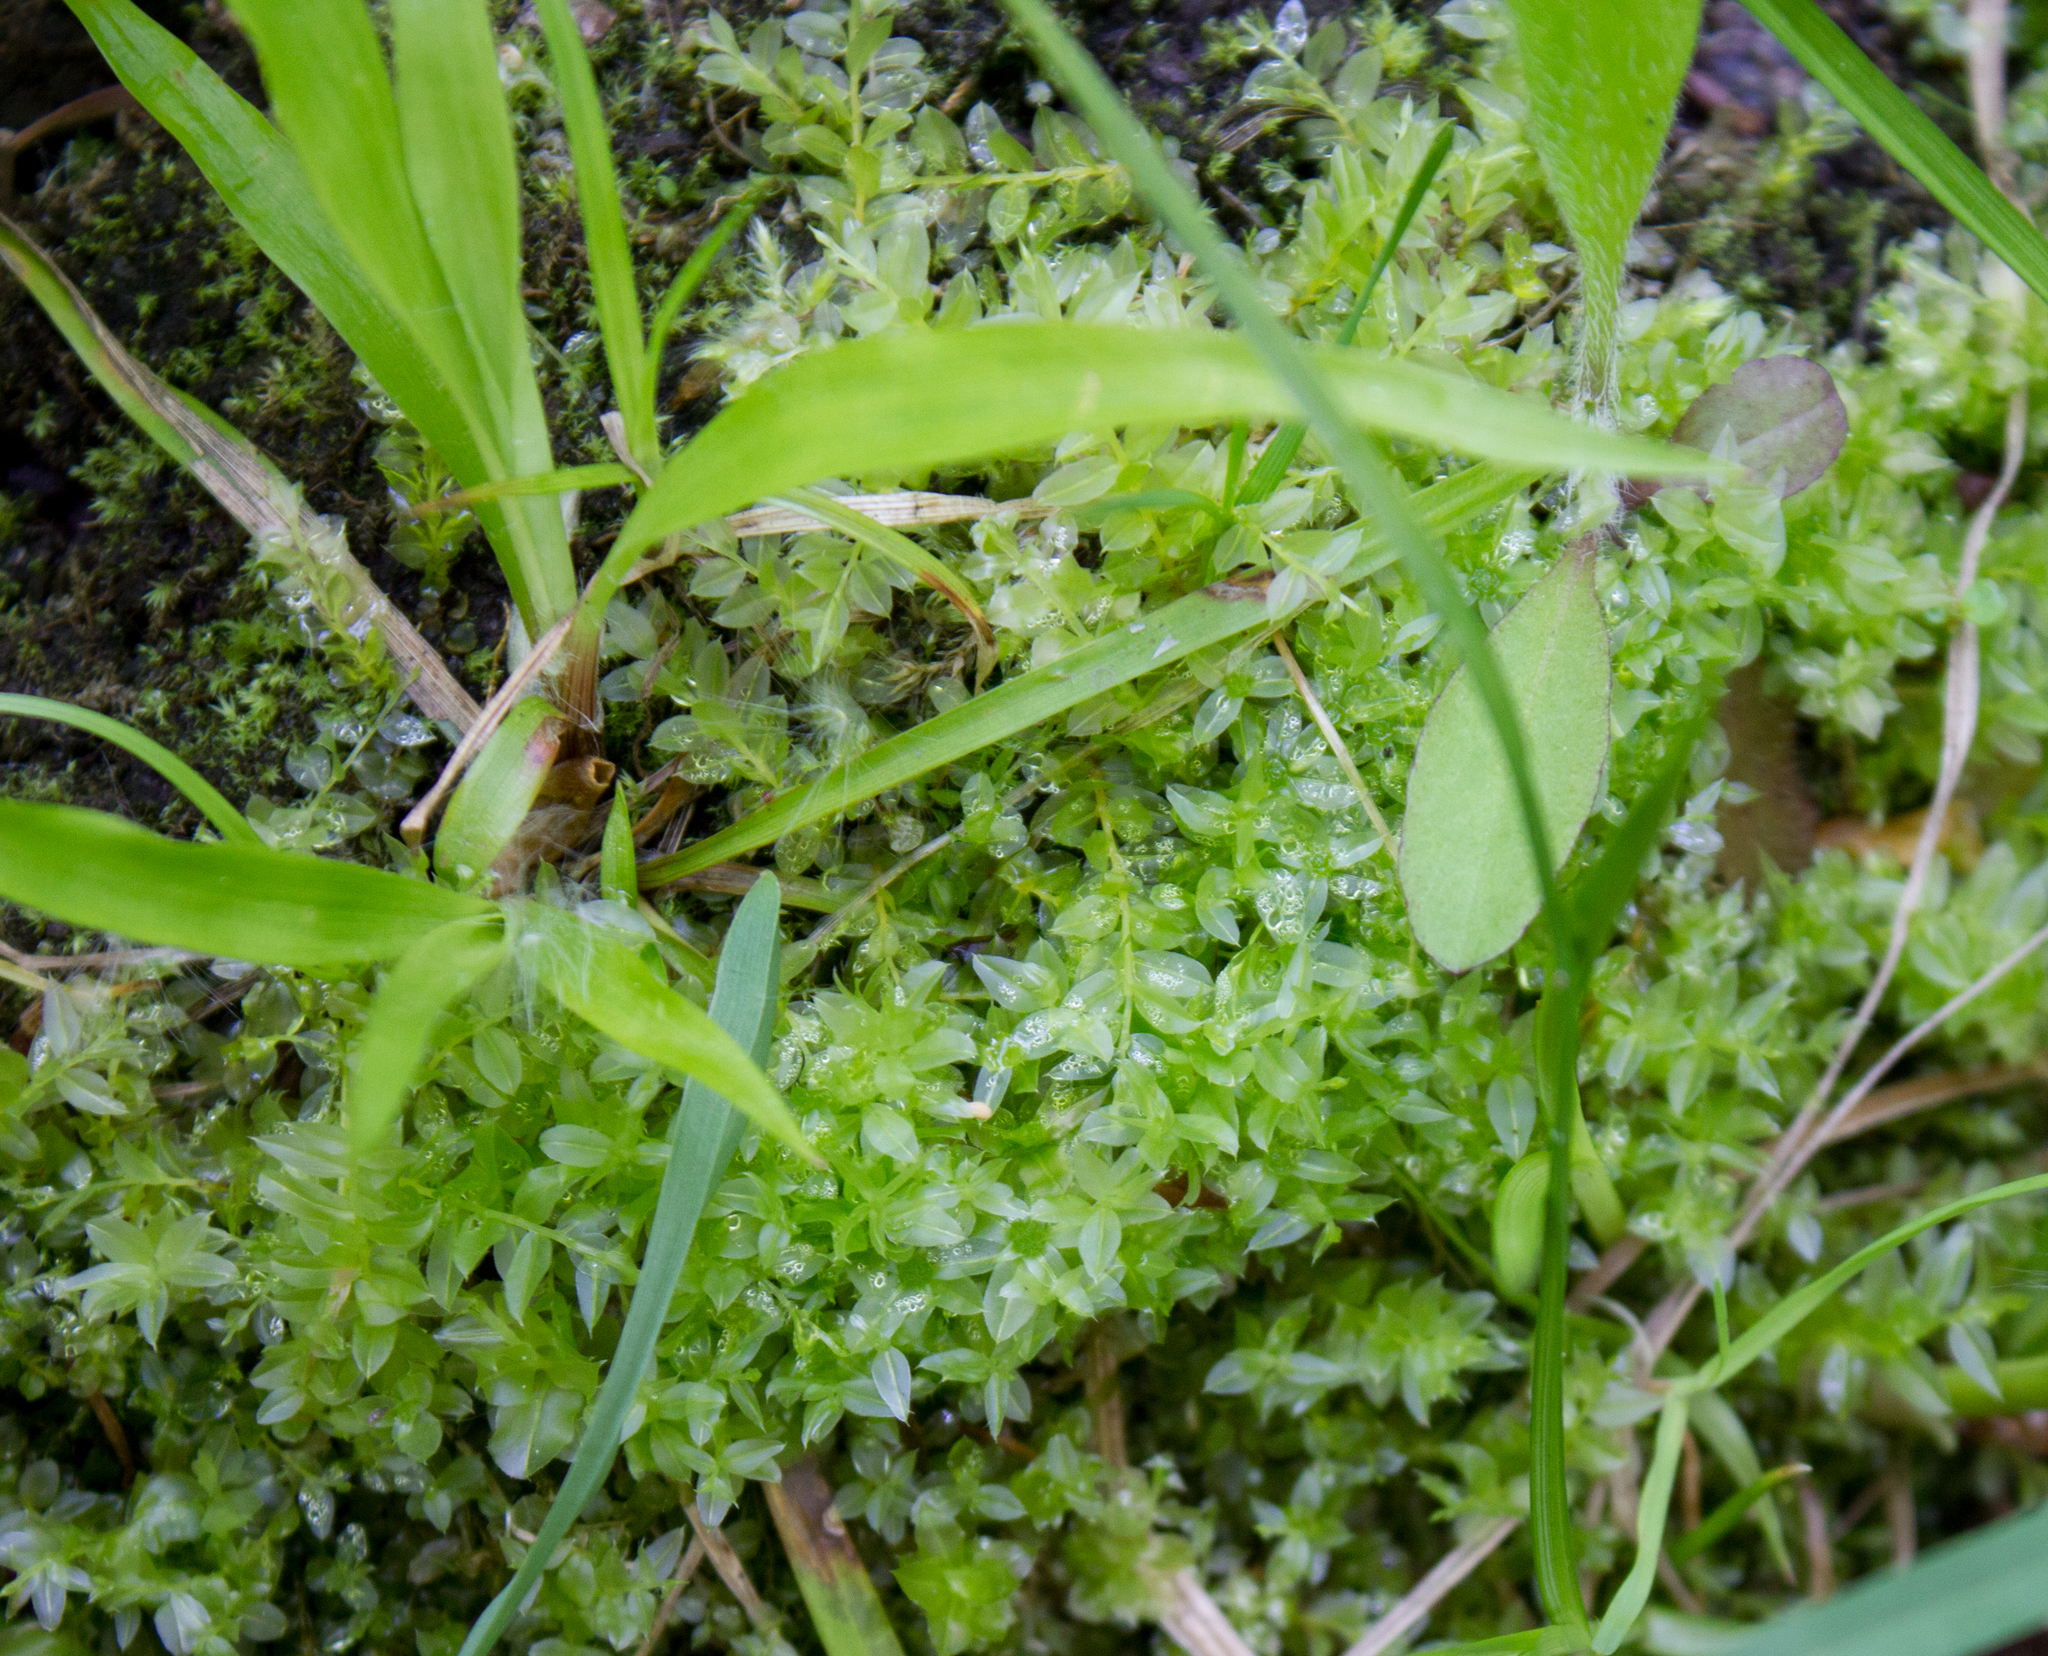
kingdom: Plantae
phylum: Bryophyta
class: Bryopsida
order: Bryales
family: Mniaceae
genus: Plagiomnium
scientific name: Plagiomnium cuspidatum
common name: Woodsy leafy moss
